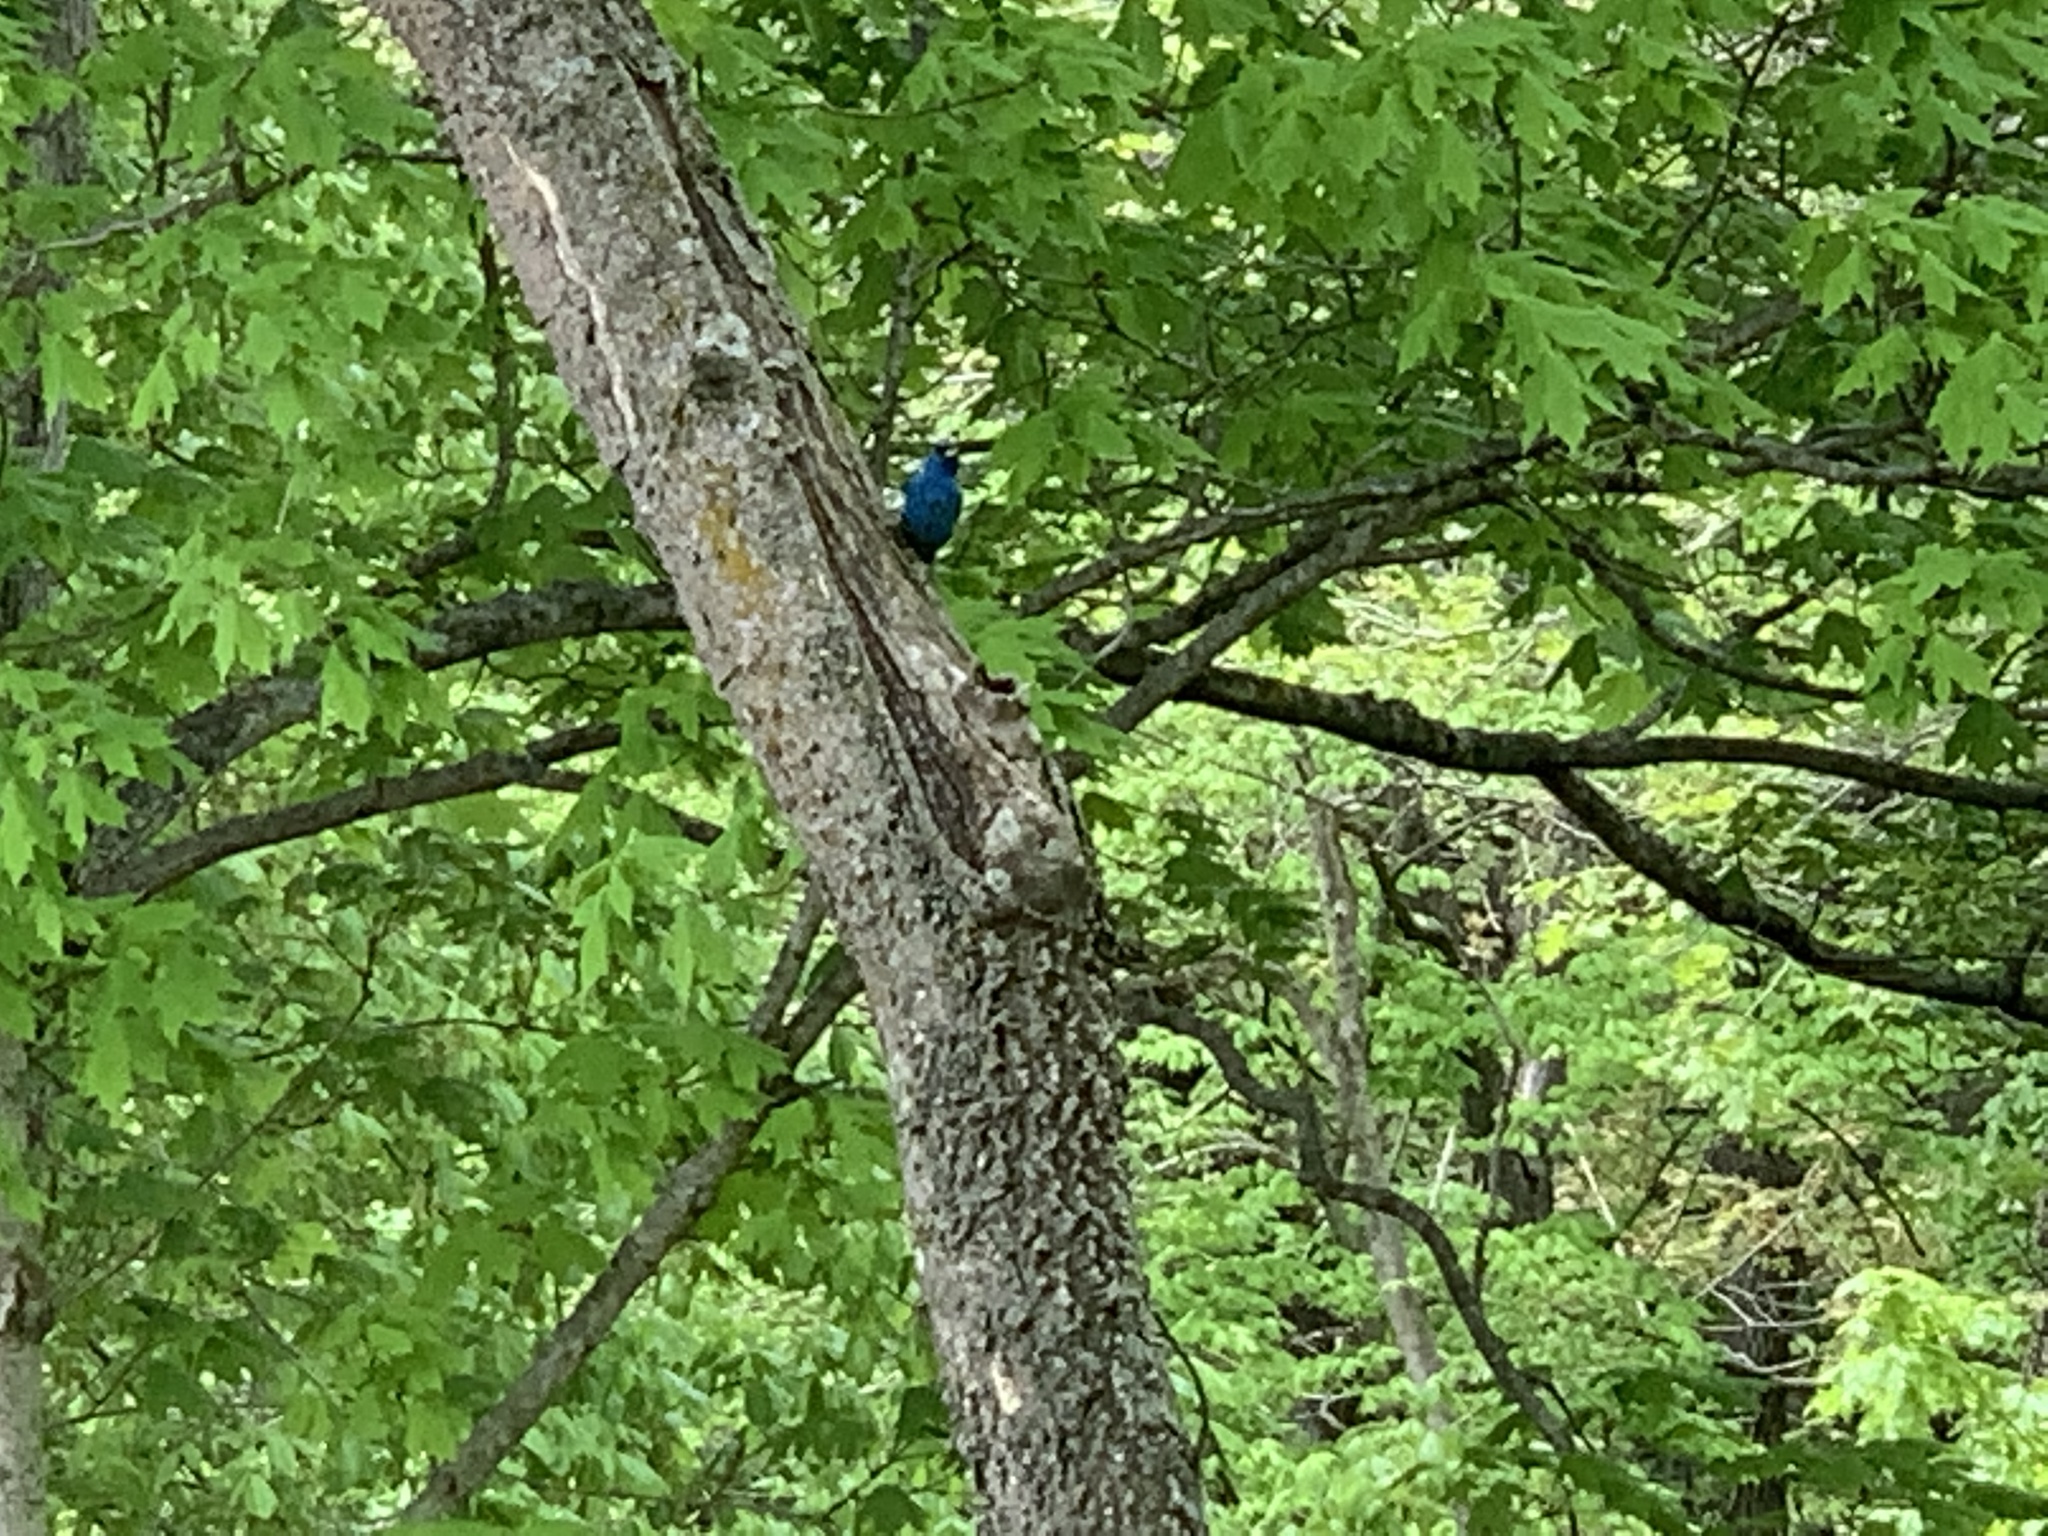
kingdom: Animalia
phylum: Chordata
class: Aves
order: Passeriformes
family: Cardinalidae
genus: Passerina
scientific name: Passerina cyanea
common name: Indigo bunting
